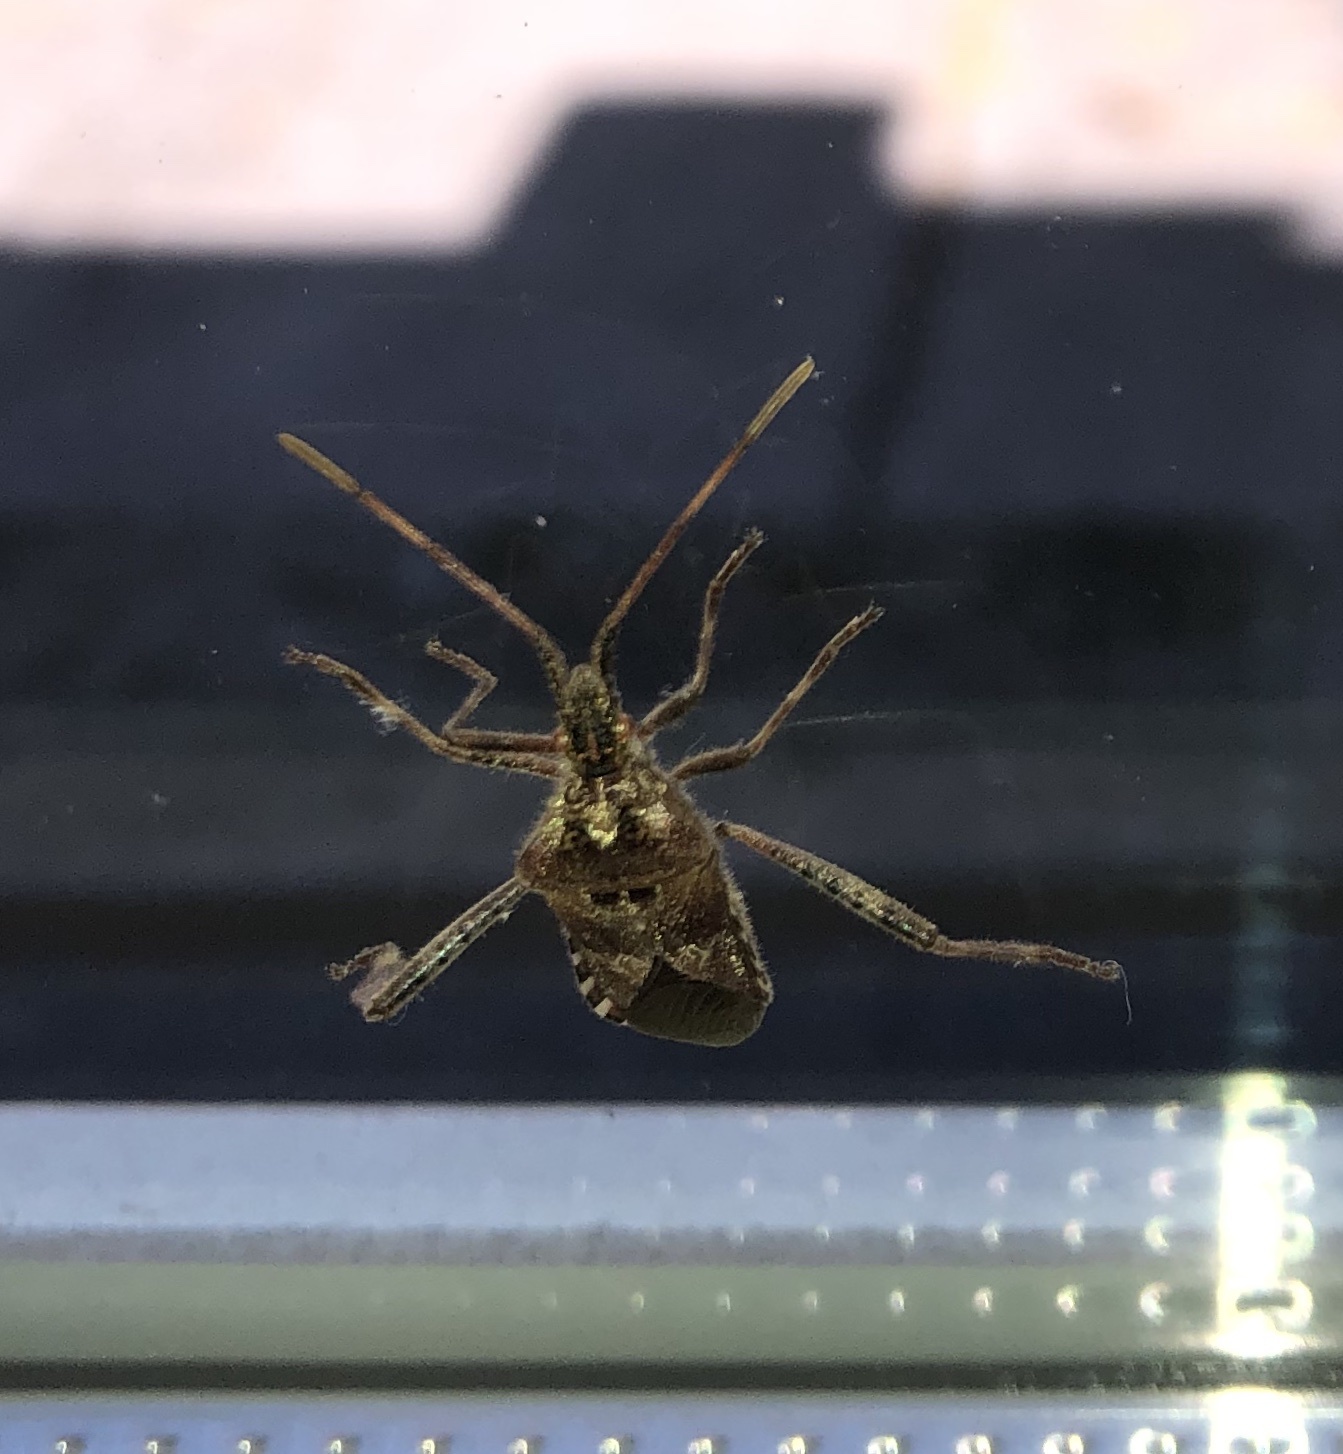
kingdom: Animalia
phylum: Arthropoda
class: Insecta
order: Hemiptera
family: Coreidae
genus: Leptoglossus
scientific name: Leptoglossus occidentalis
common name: Western conifer-seed bug
